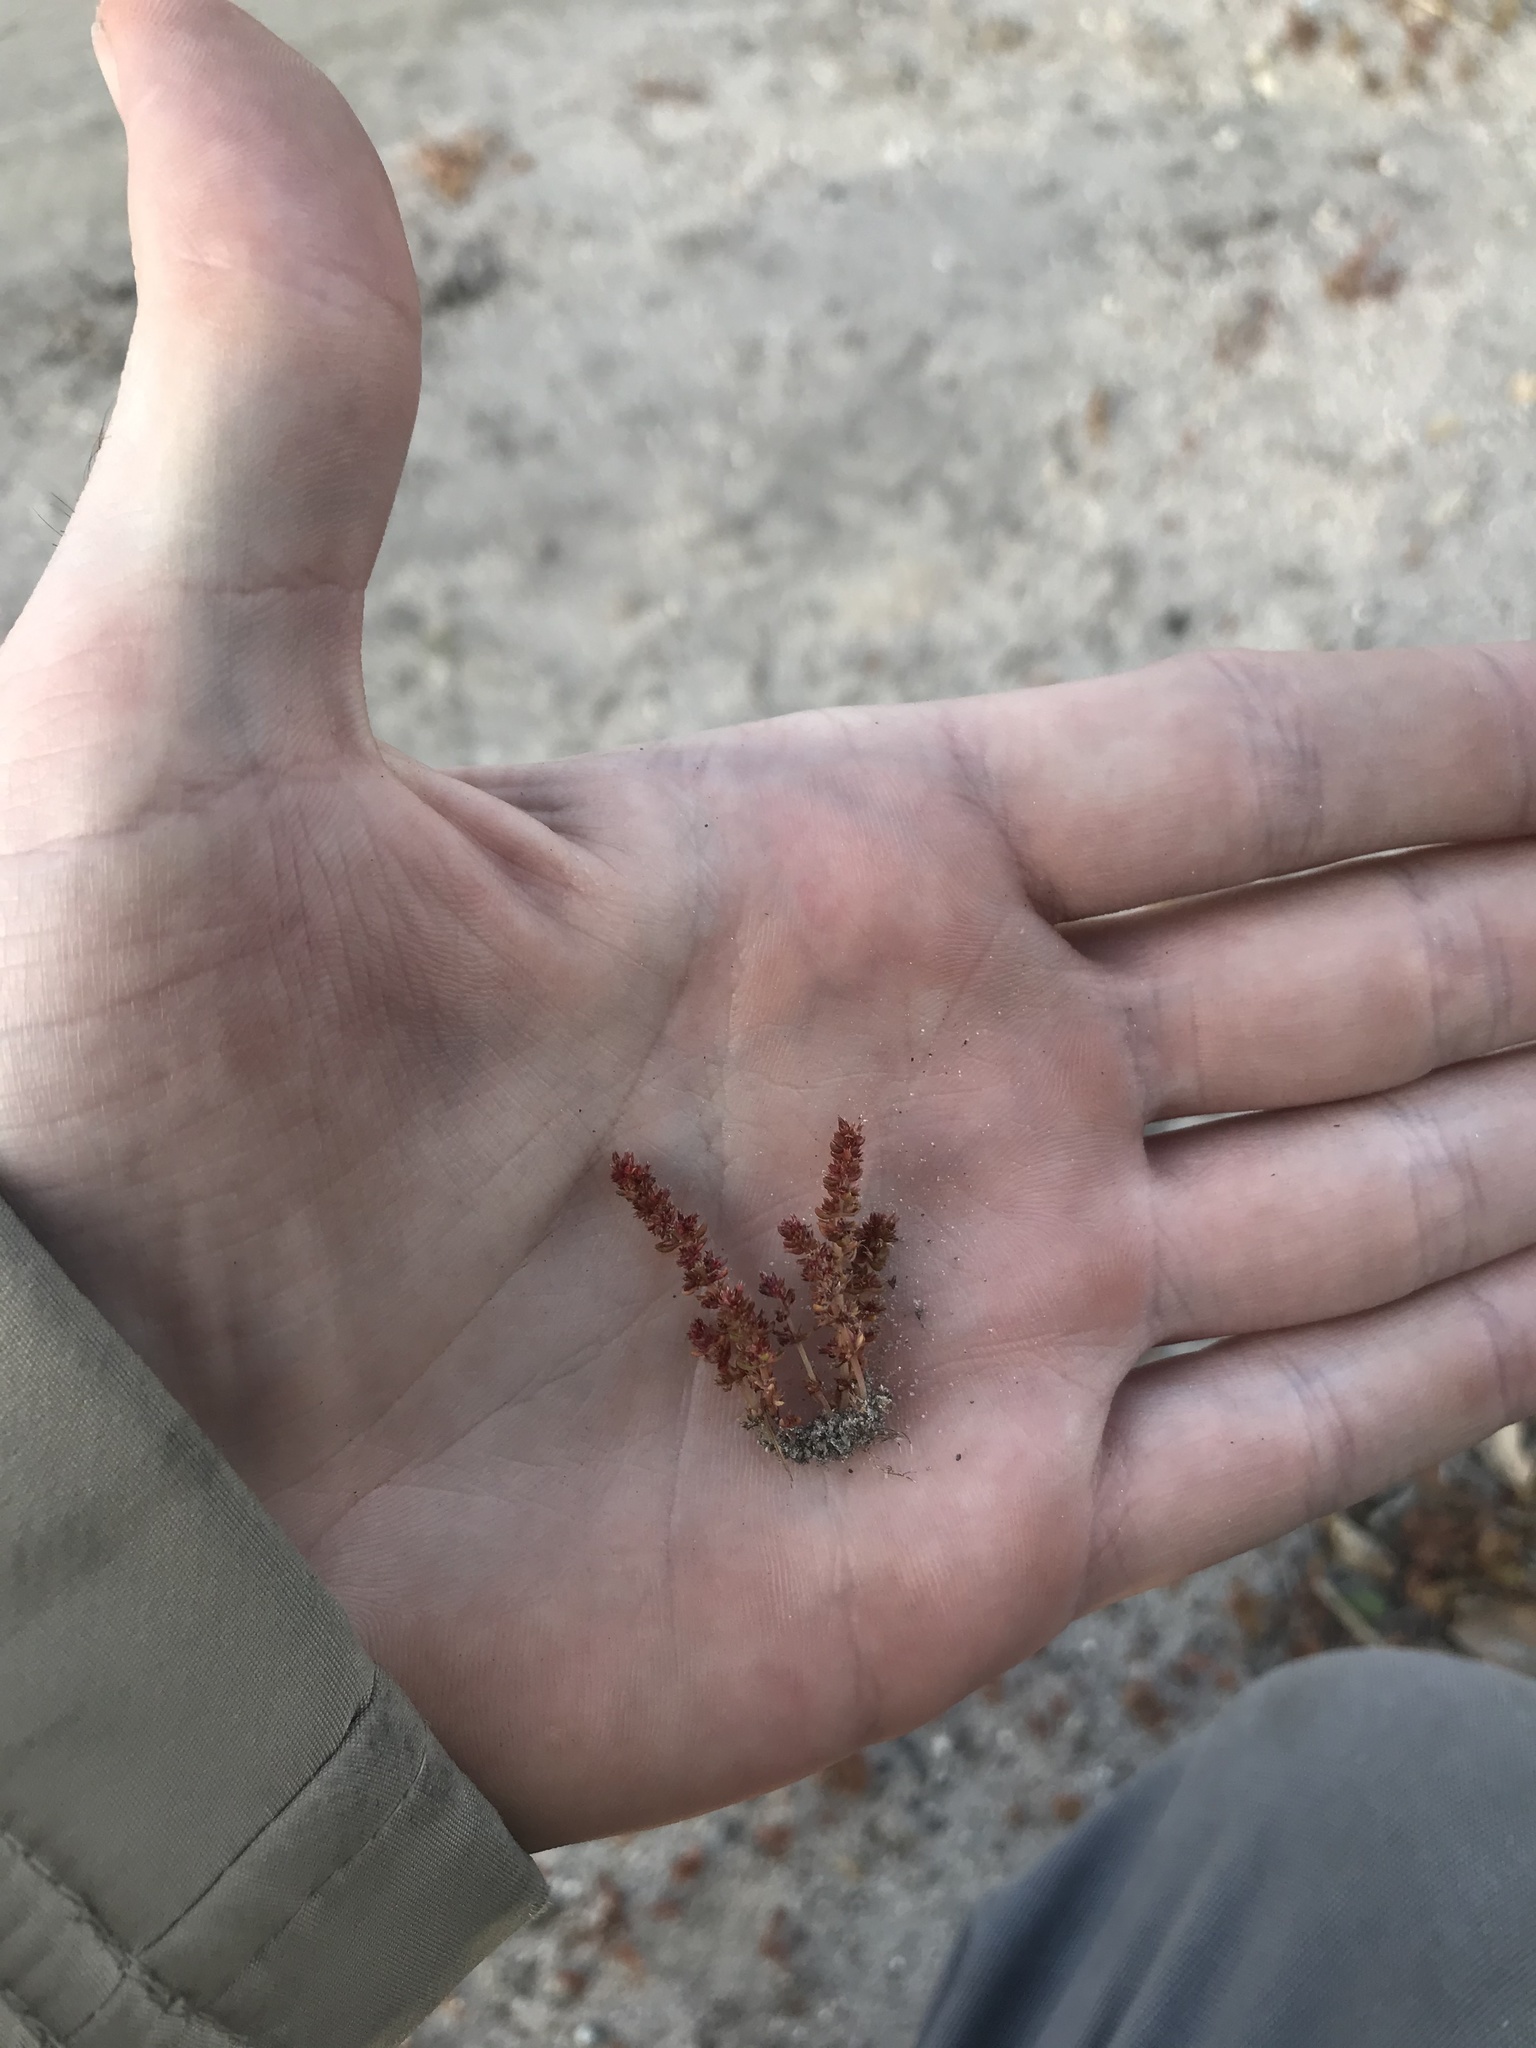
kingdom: Plantae
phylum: Tracheophyta
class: Magnoliopsida
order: Saxifragales
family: Crassulaceae
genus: Crassula
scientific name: Crassula tillaea
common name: Mossy stonecrop
